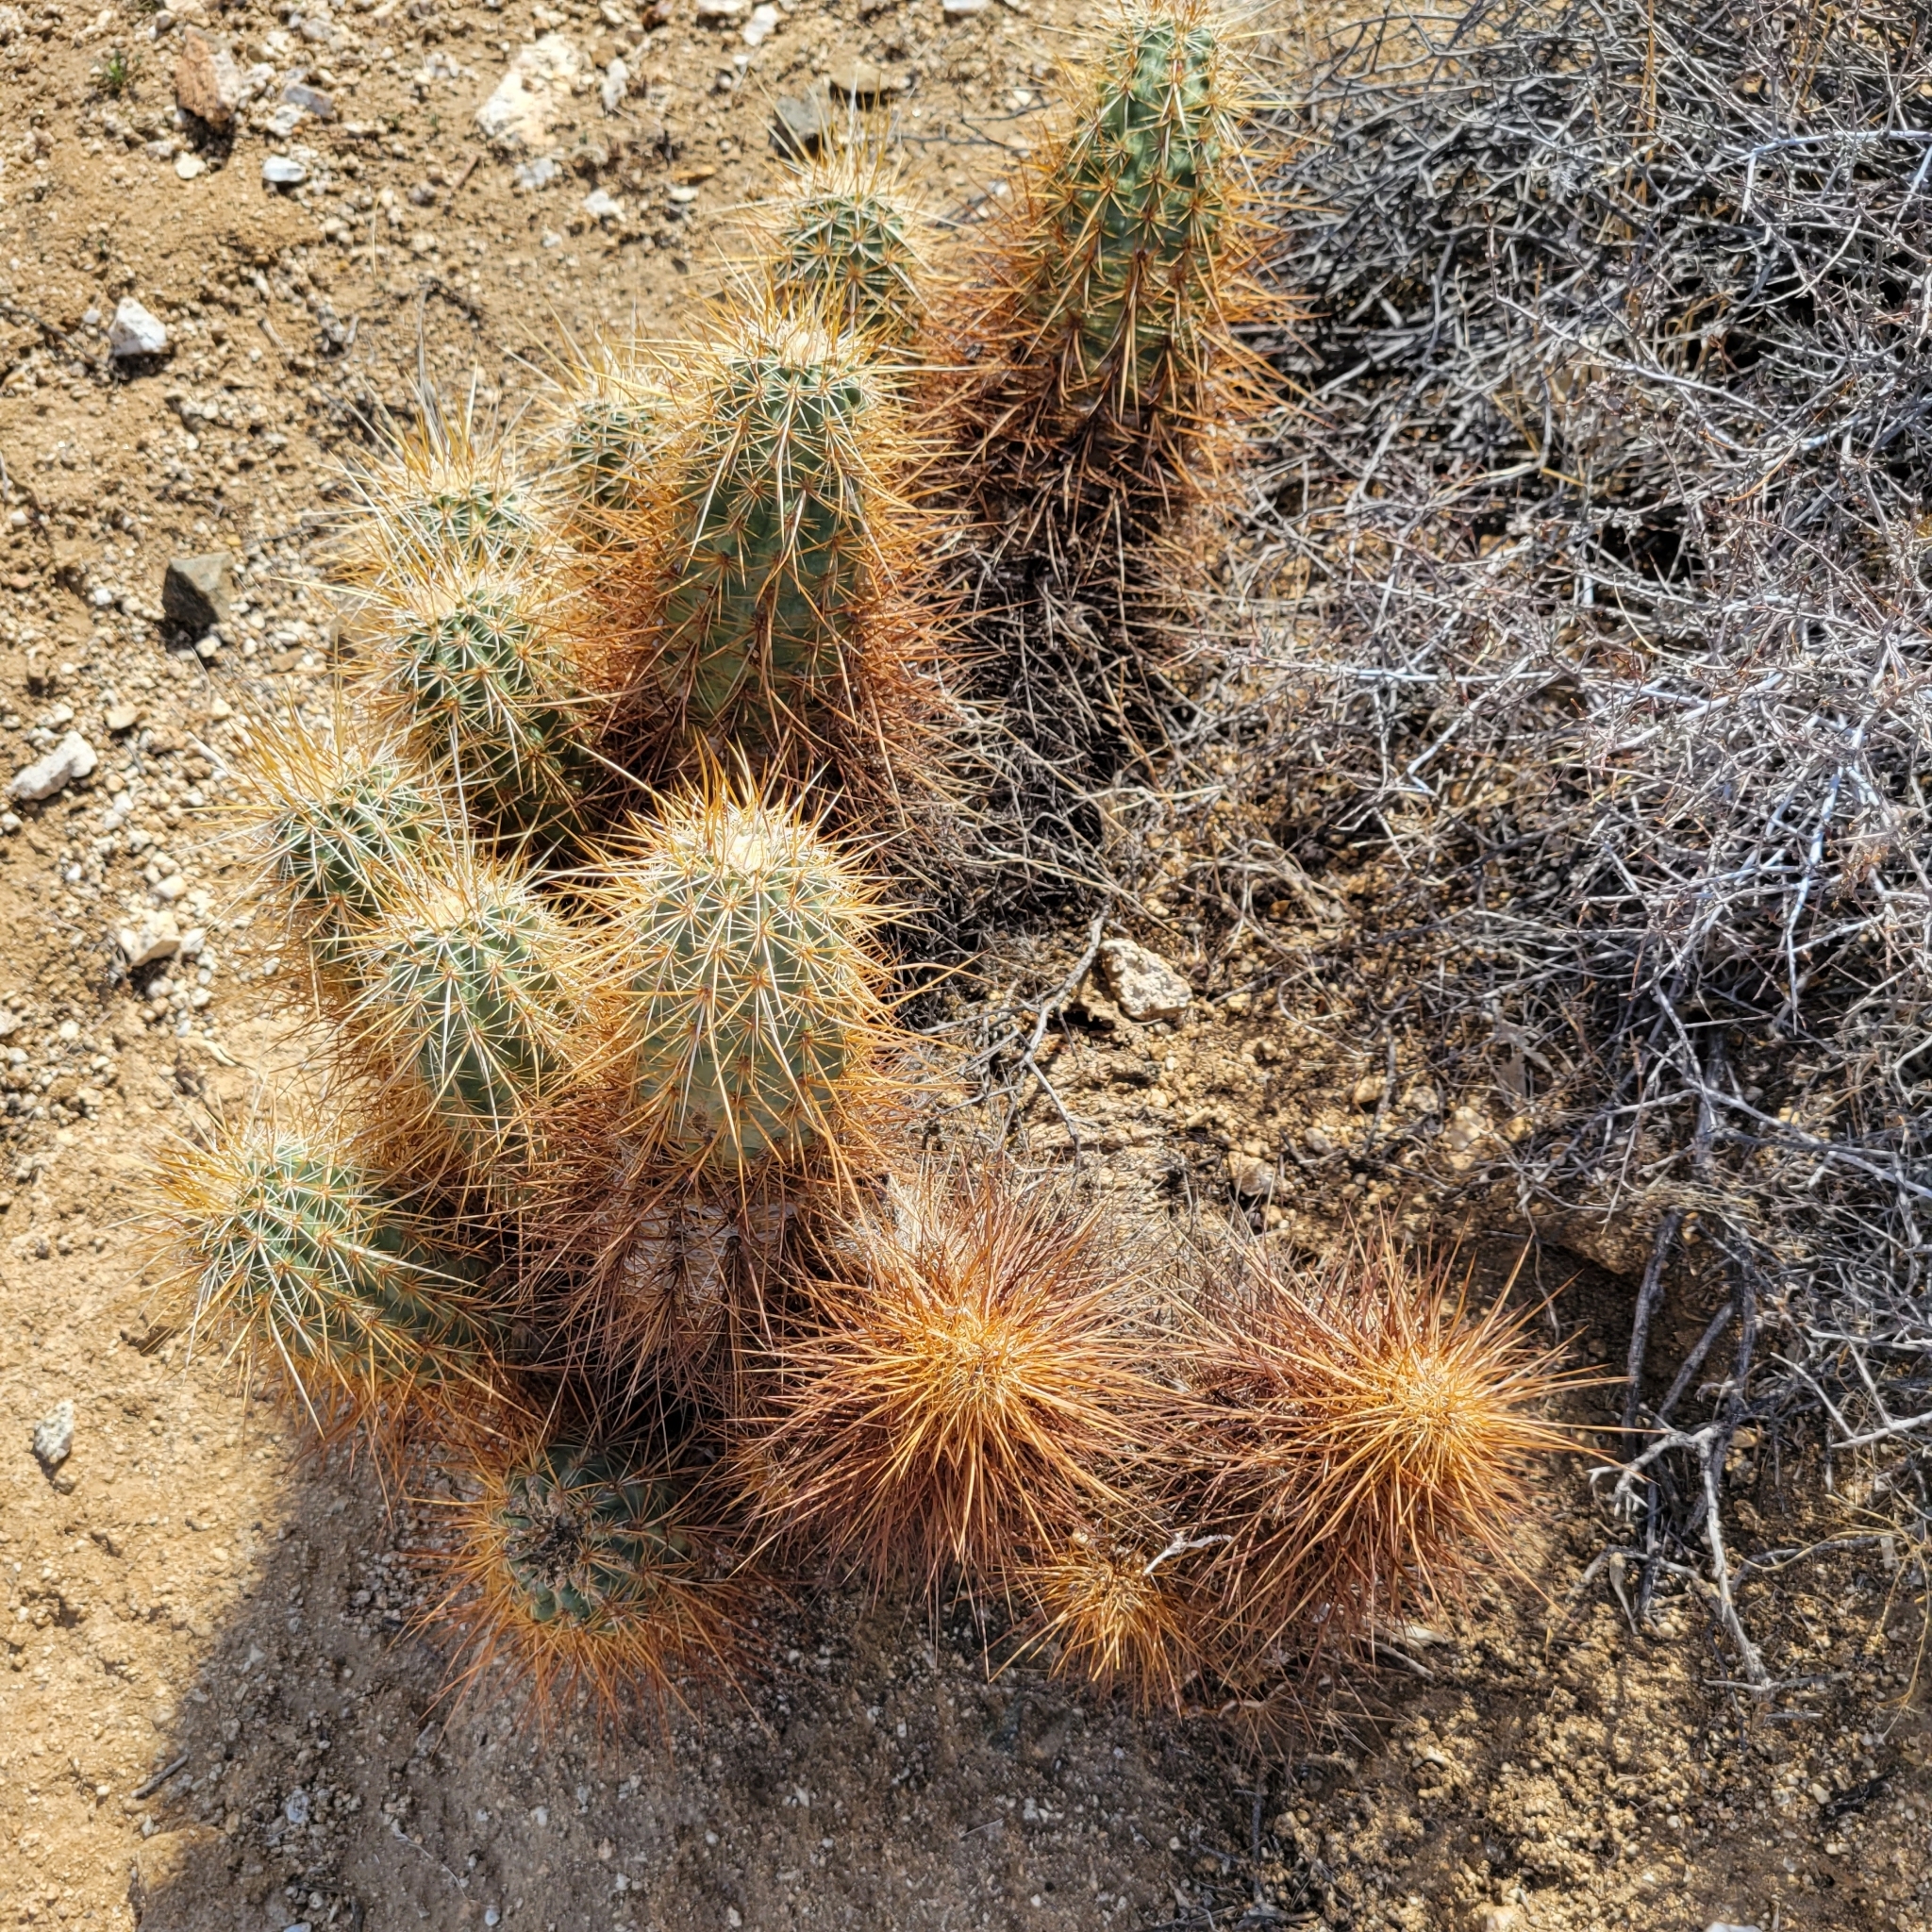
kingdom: Plantae
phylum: Tracheophyta
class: Magnoliopsida
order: Caryophyllales
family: Cactaceae
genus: Echinocereus
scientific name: Echinocereus engelmannii
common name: Engelmann's hedgehog cactus
